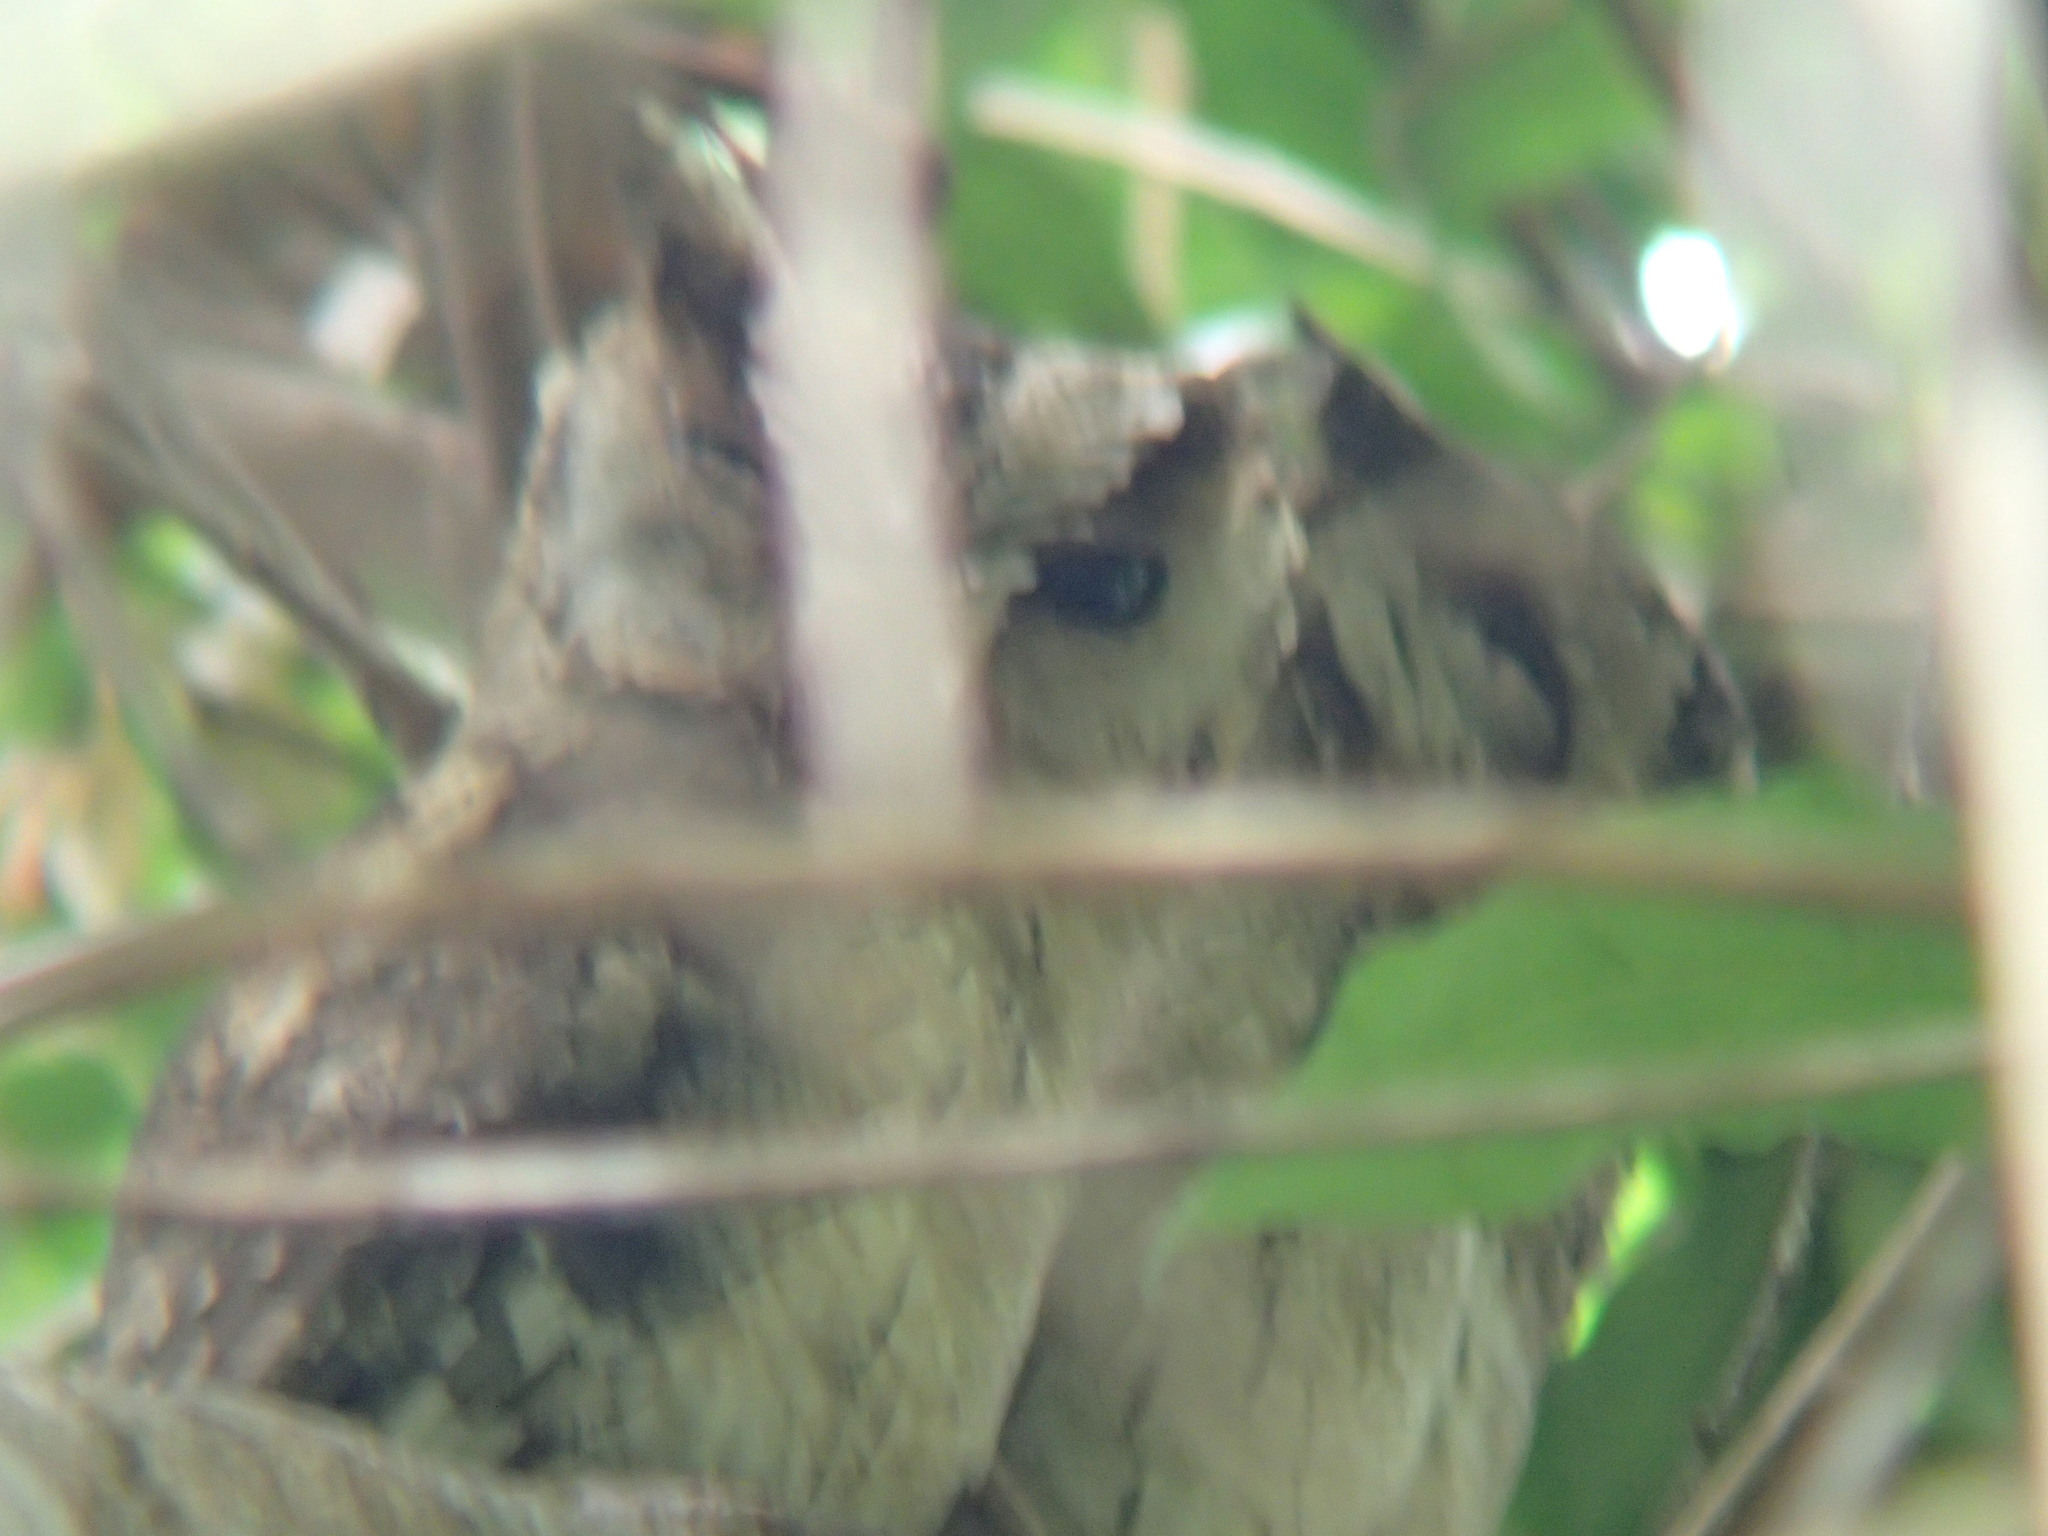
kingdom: Animalia
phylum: Chordata
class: Aves
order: Strigiformes
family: Strigidae
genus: Otus
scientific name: Otus bakkamoena
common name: Indian scops owl
